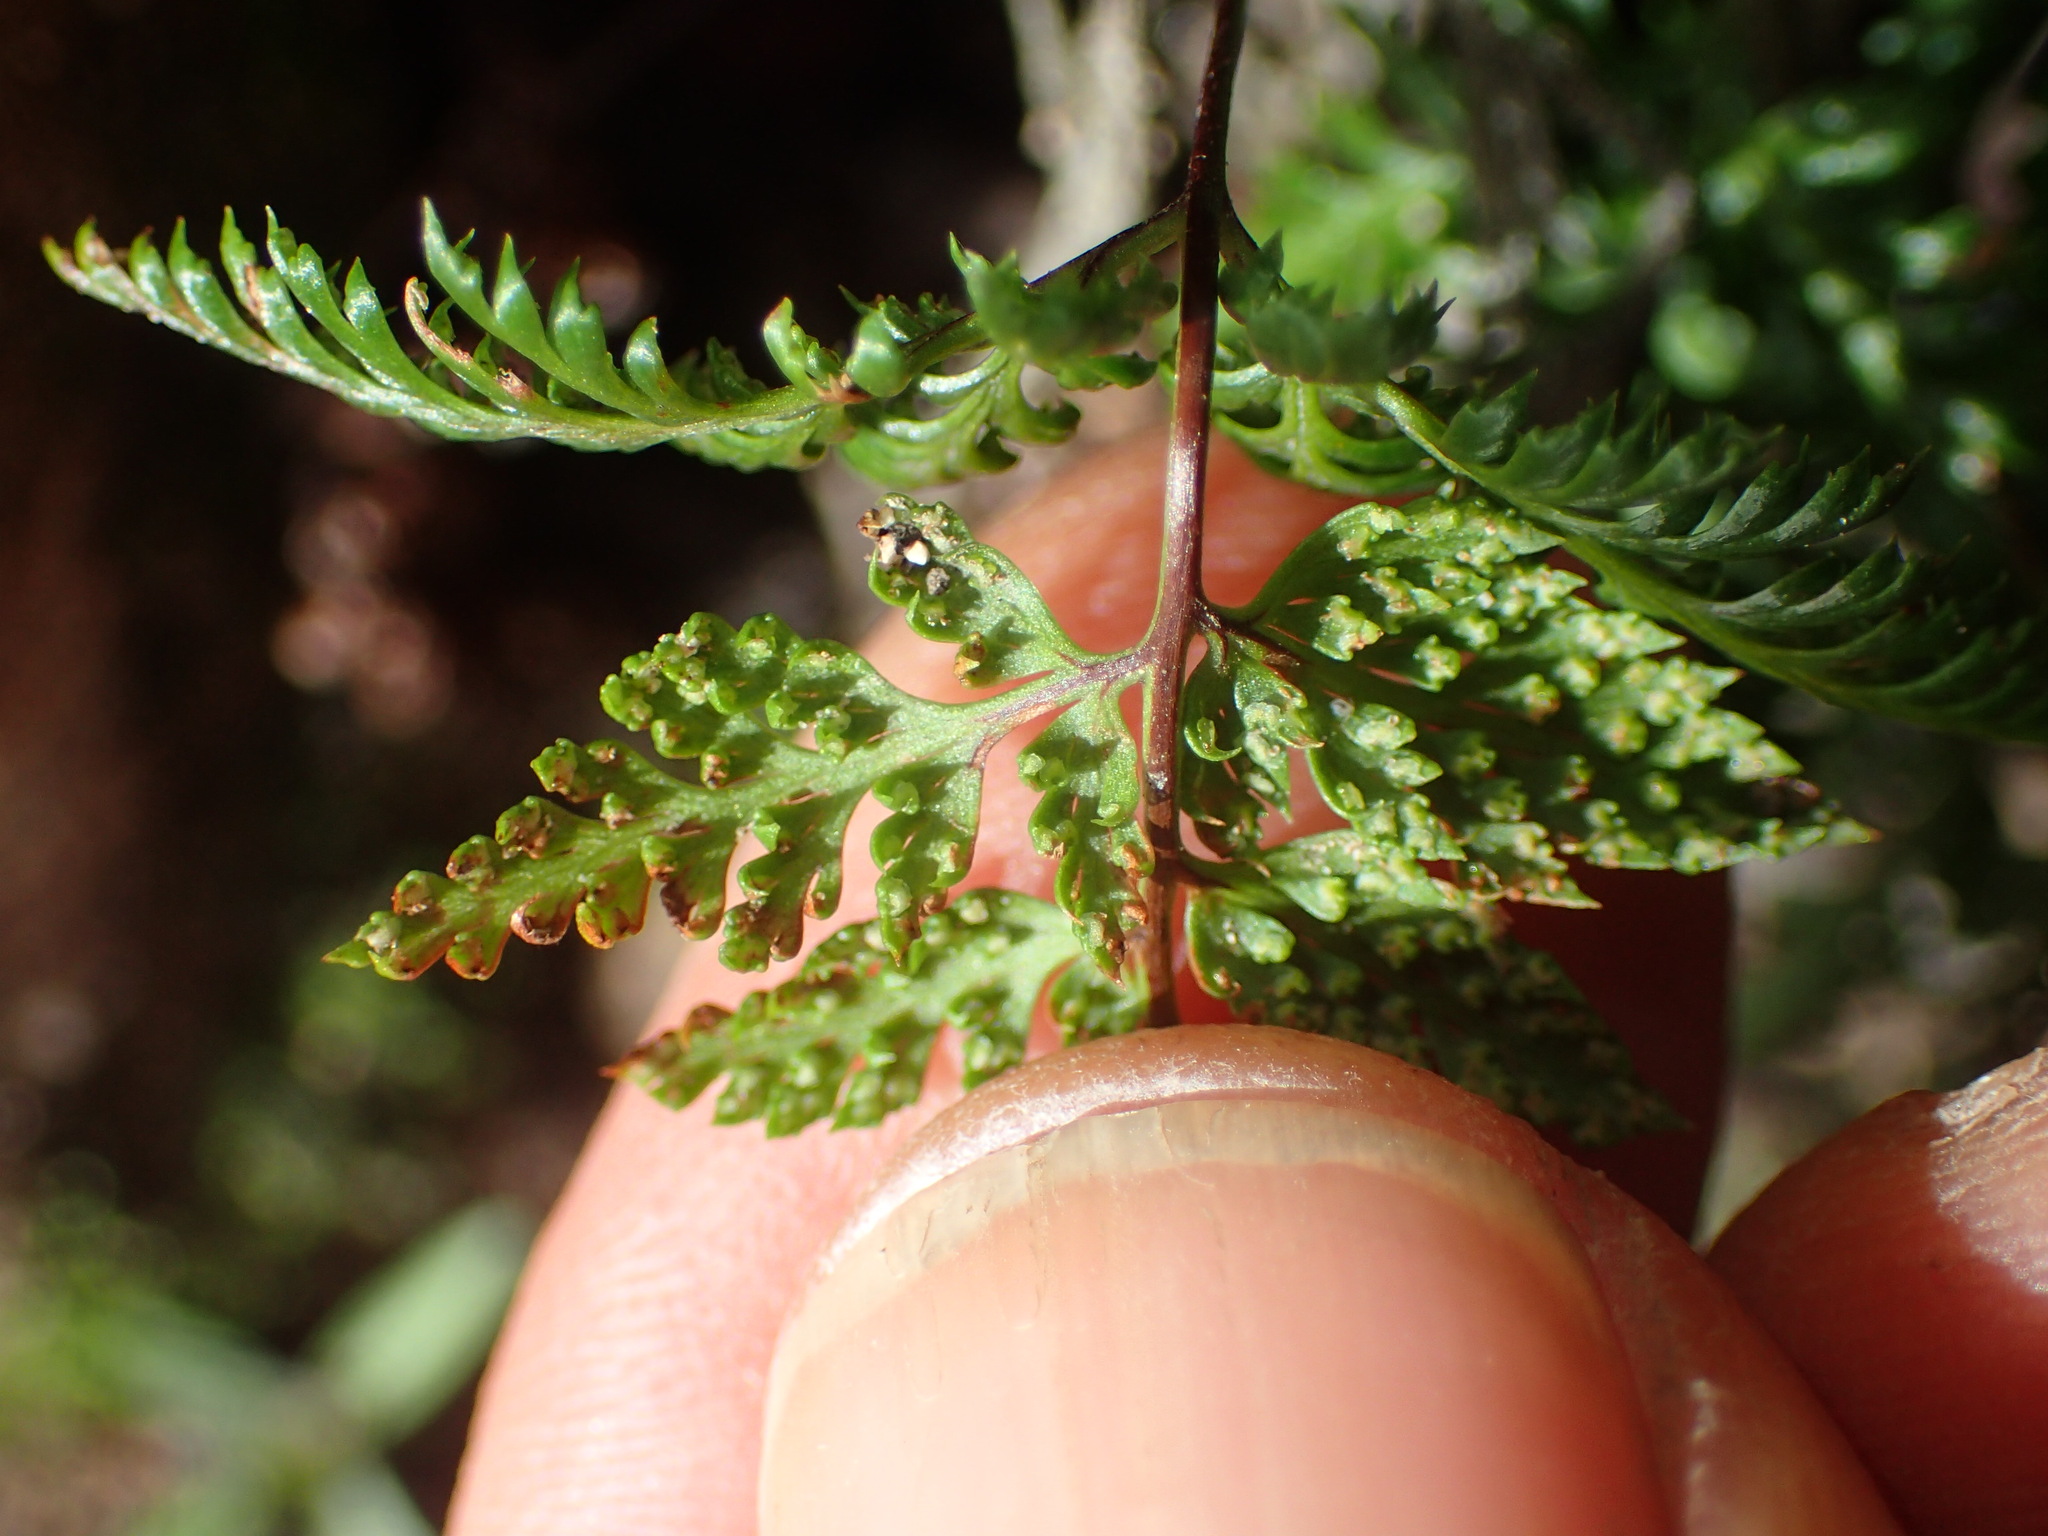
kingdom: Plantae
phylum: Tracheophyta
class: Polypodiopsida
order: Polypodiales
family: Pteridaceae
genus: Aspidotis
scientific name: Aspidotis californica
